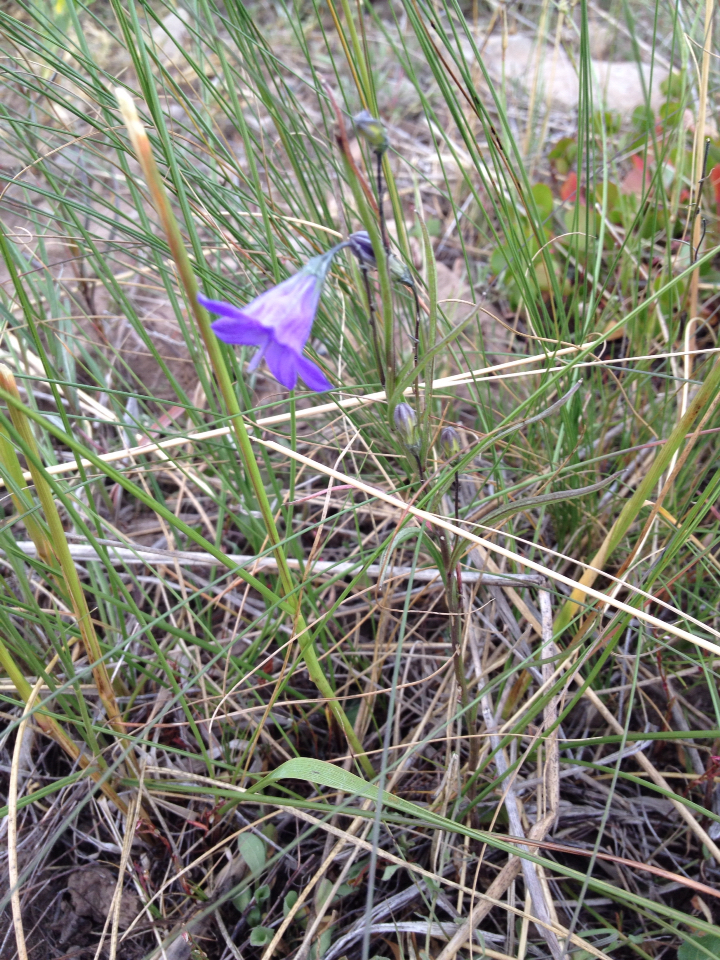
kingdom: Plantae
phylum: Tracheophyta
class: Magnoliopsida
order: Asterales
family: Campanulaceae
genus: Campanula
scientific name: Campanula petiolata
